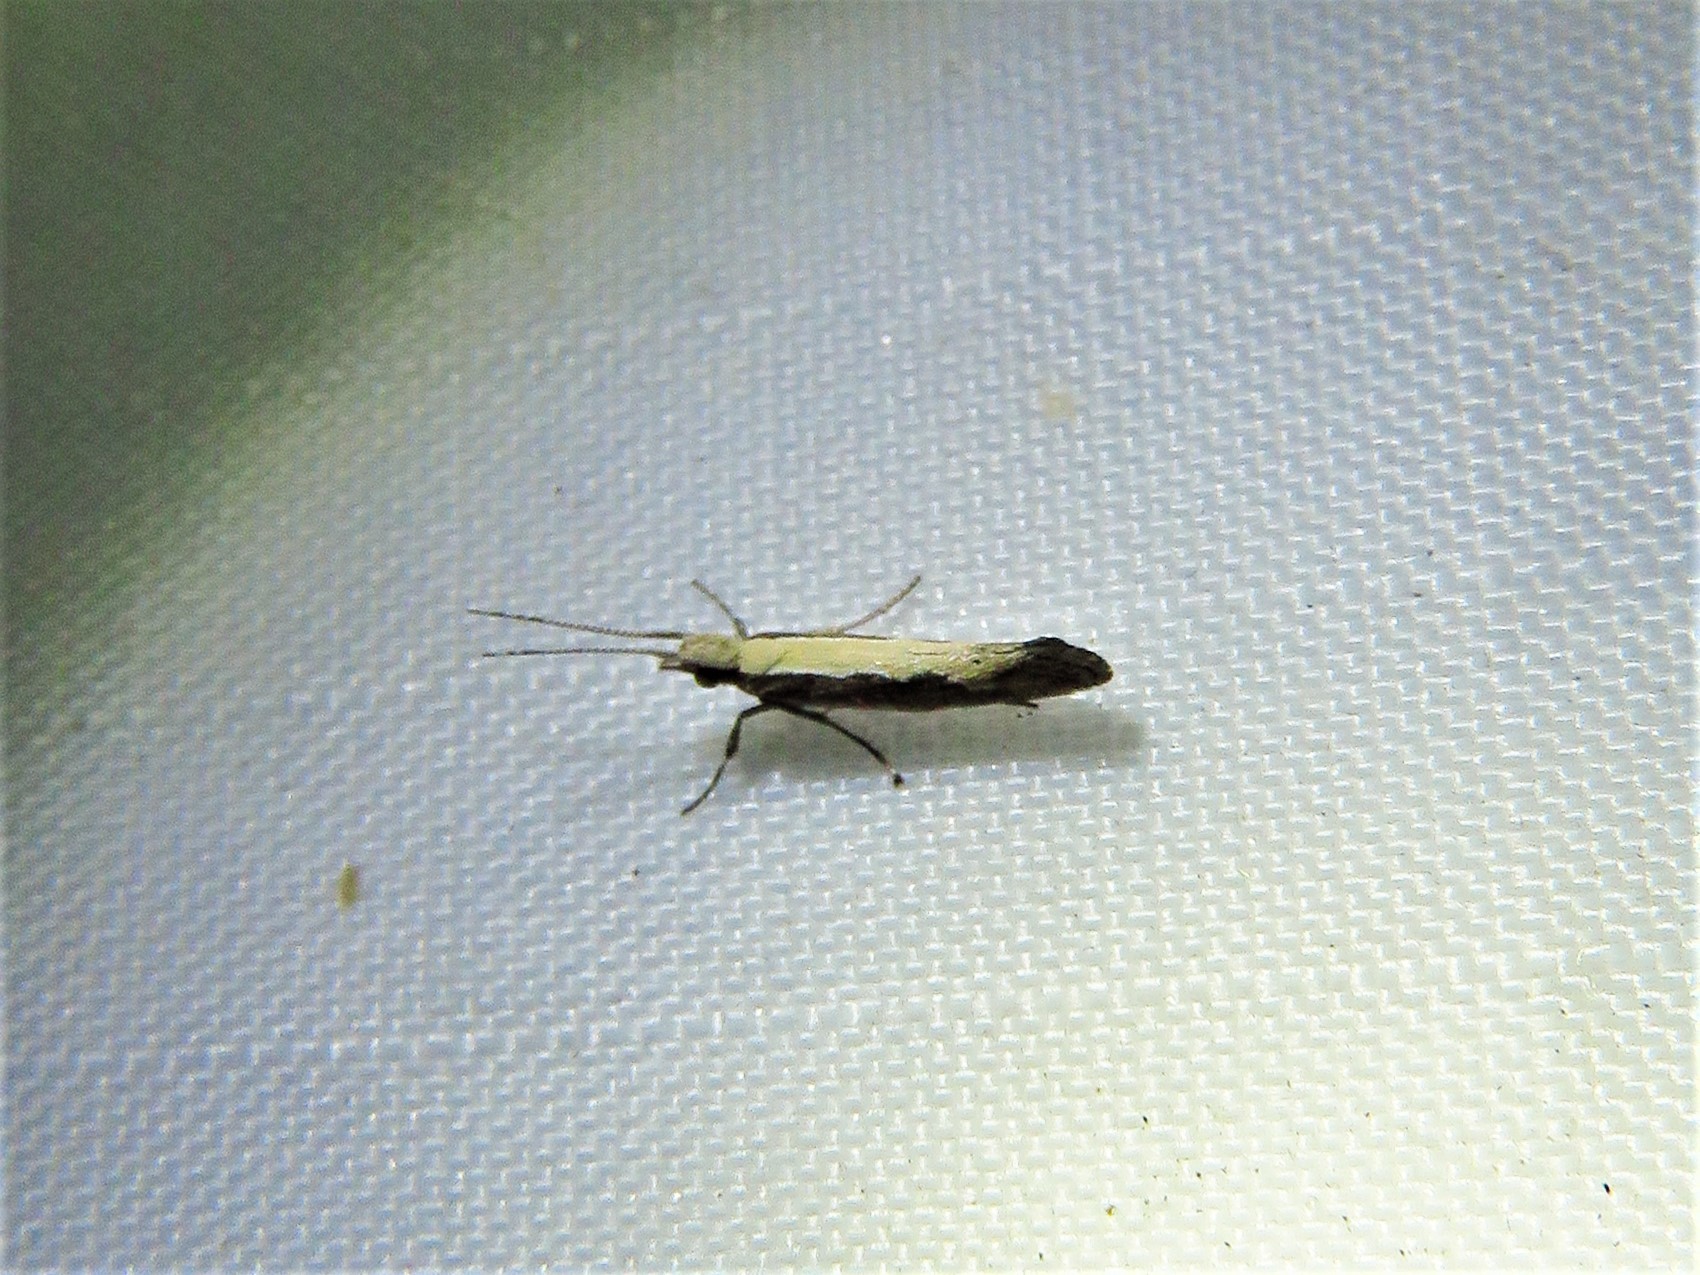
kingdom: Animalia
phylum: Arthropoda
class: Insecta
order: Lepidoptera
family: Plutellidae
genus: Plutella
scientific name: Plutella xylostella
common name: Diamond-back moth
